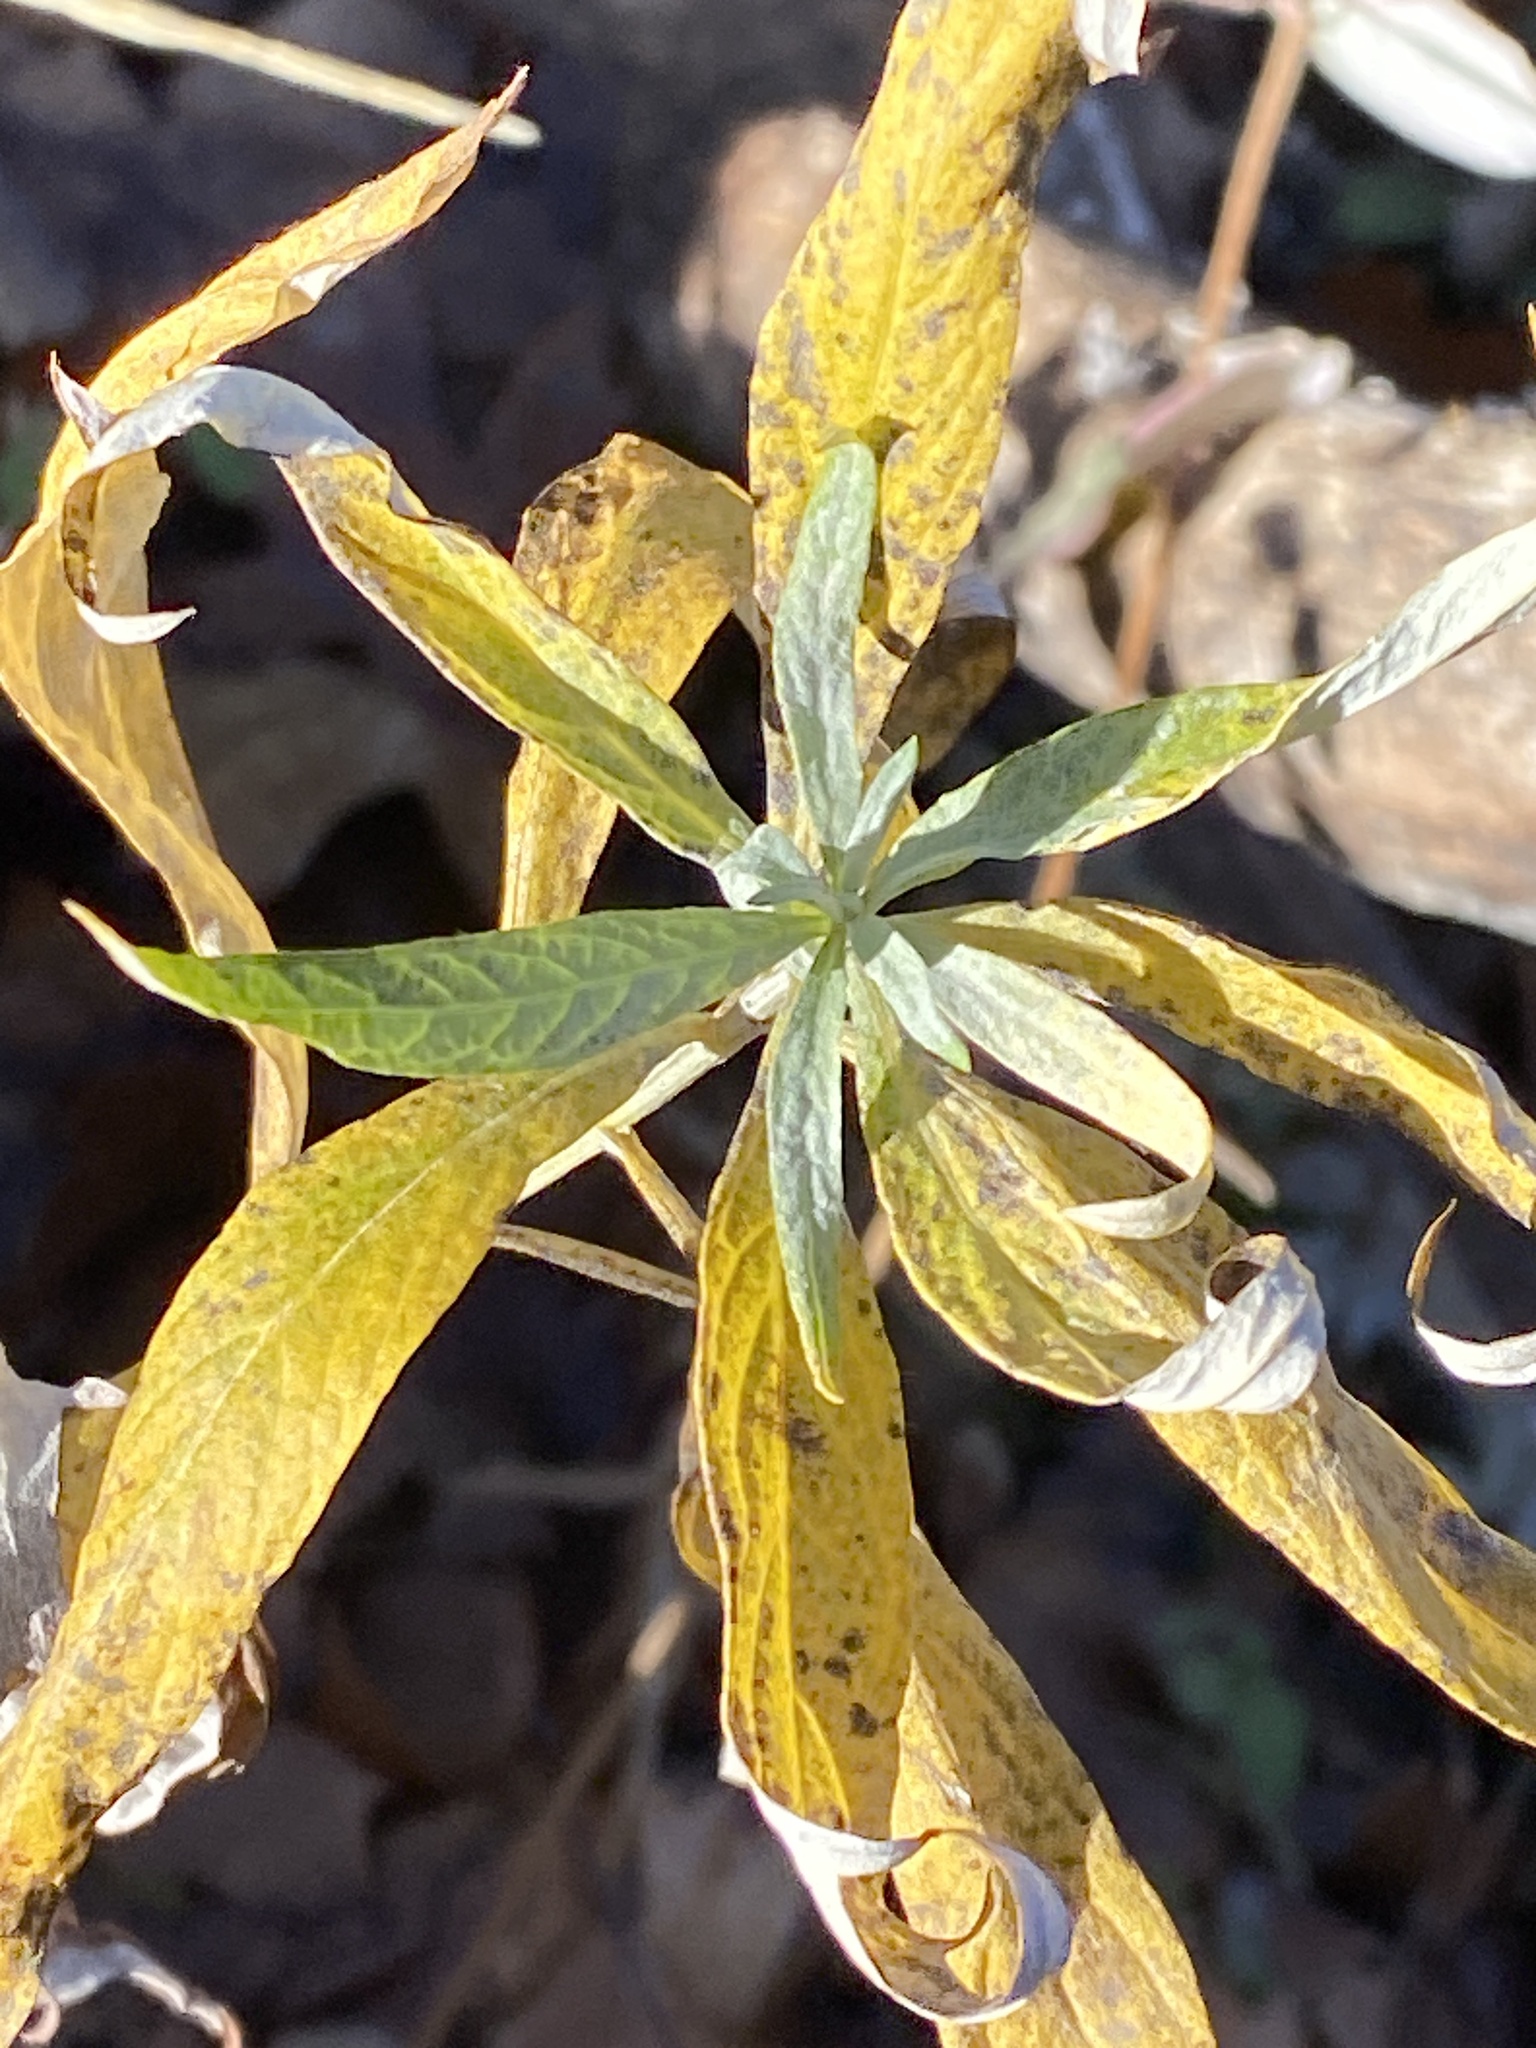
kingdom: Plantae
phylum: Tracheophyta
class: Magnoliopsida
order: Asterales
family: Asteraceae
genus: Artemisia
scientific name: Artemisia douglasiana
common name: Northwest mugwort
